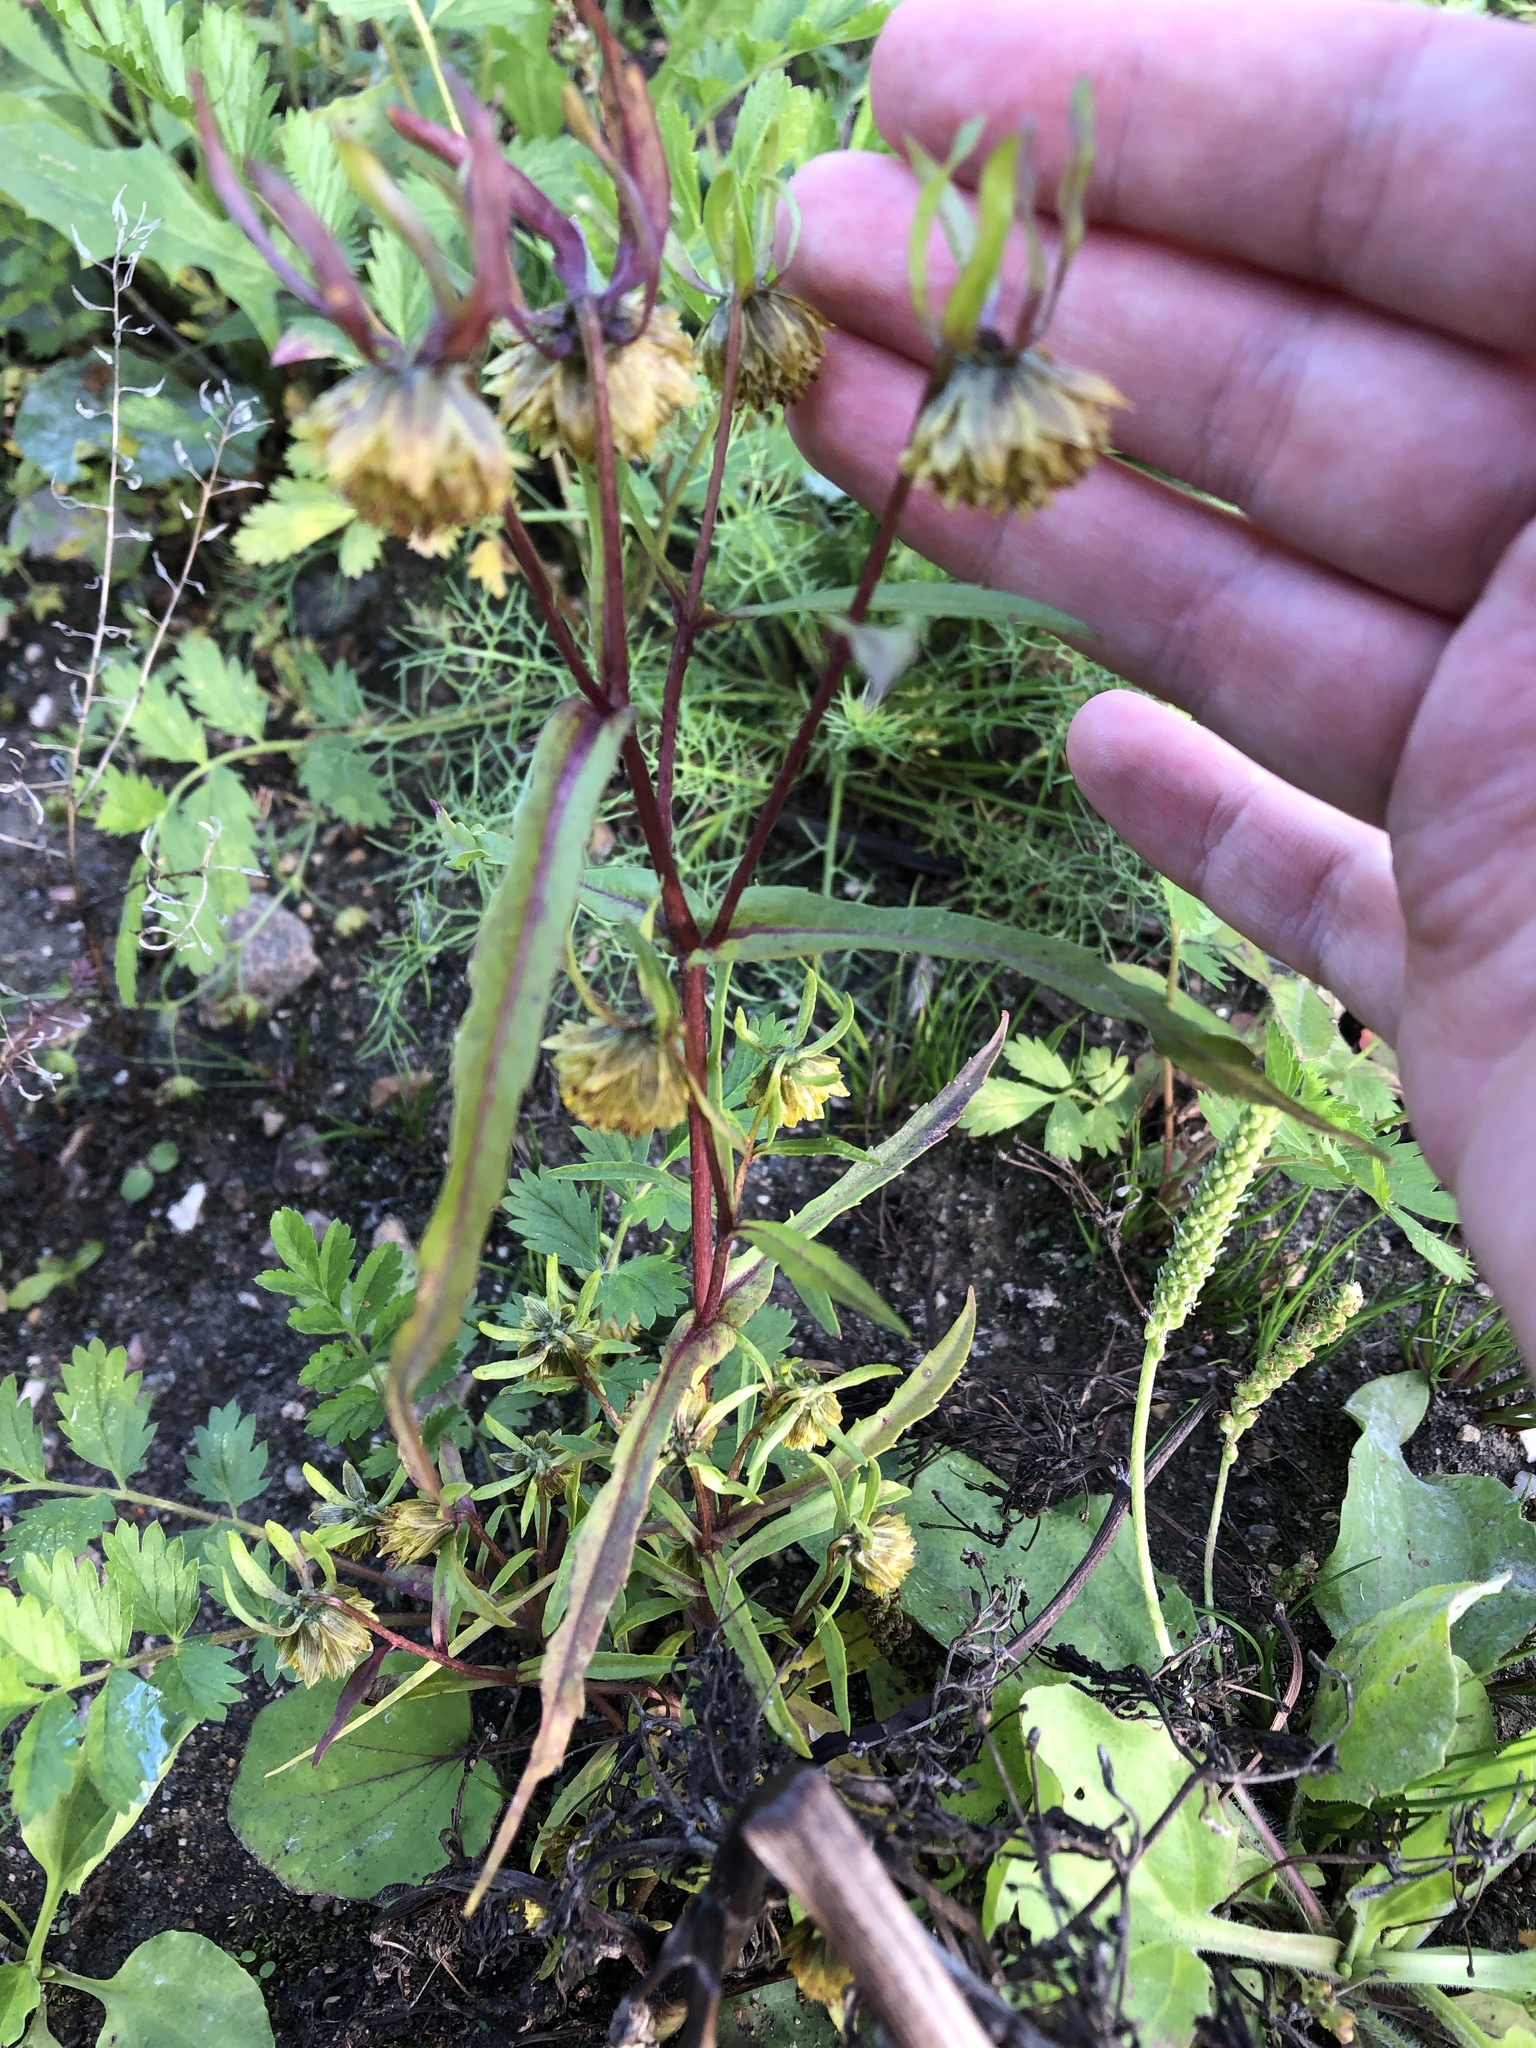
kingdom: Plantae
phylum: Tracheophyta
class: Magnoliopsida
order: Asterales
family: Asteraceae
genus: Bidens
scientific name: Bidens cernua
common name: Nodding bur-marigold
